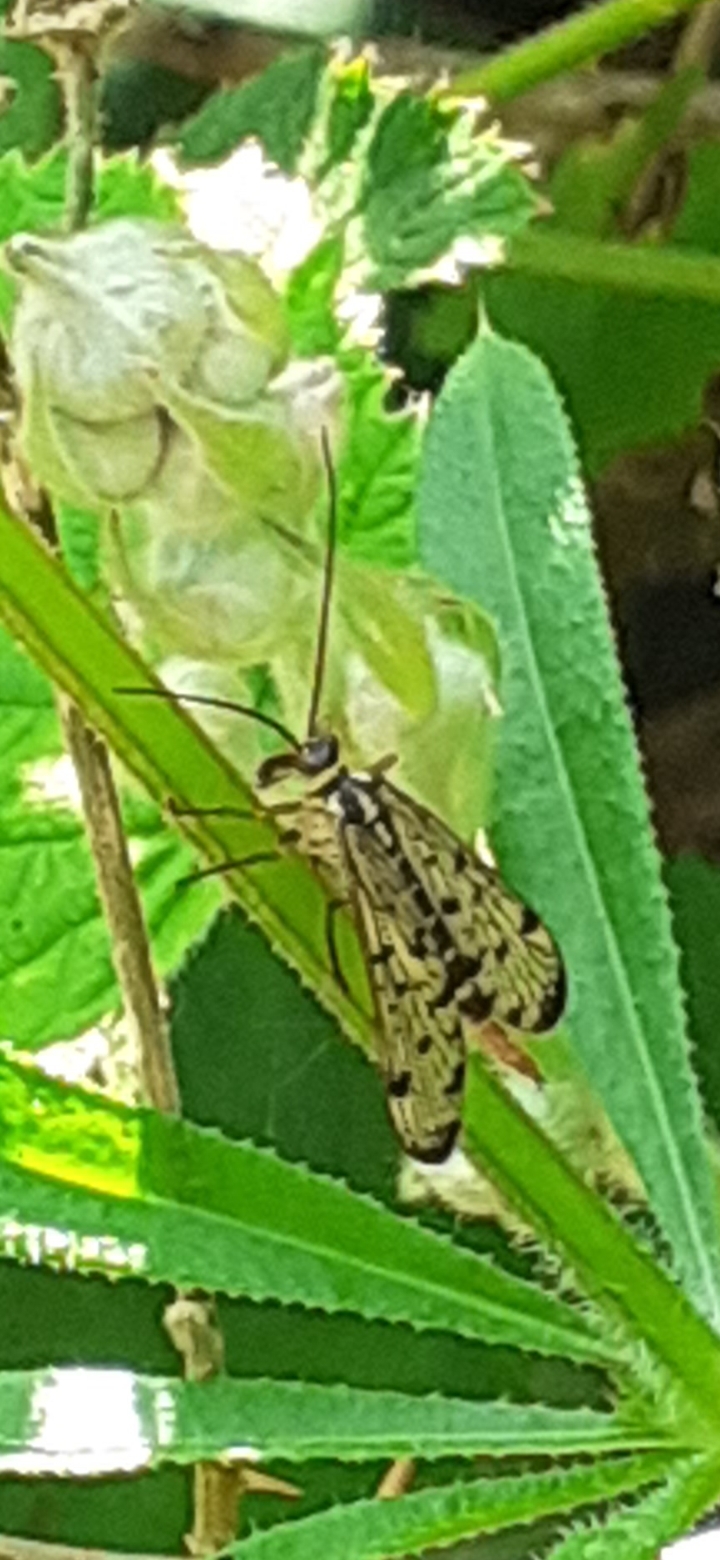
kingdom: Animalia
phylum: Arthropoda
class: Insecta
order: Mecoptera
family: Panorpidae
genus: Panorpa
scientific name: Panorpa germanica
